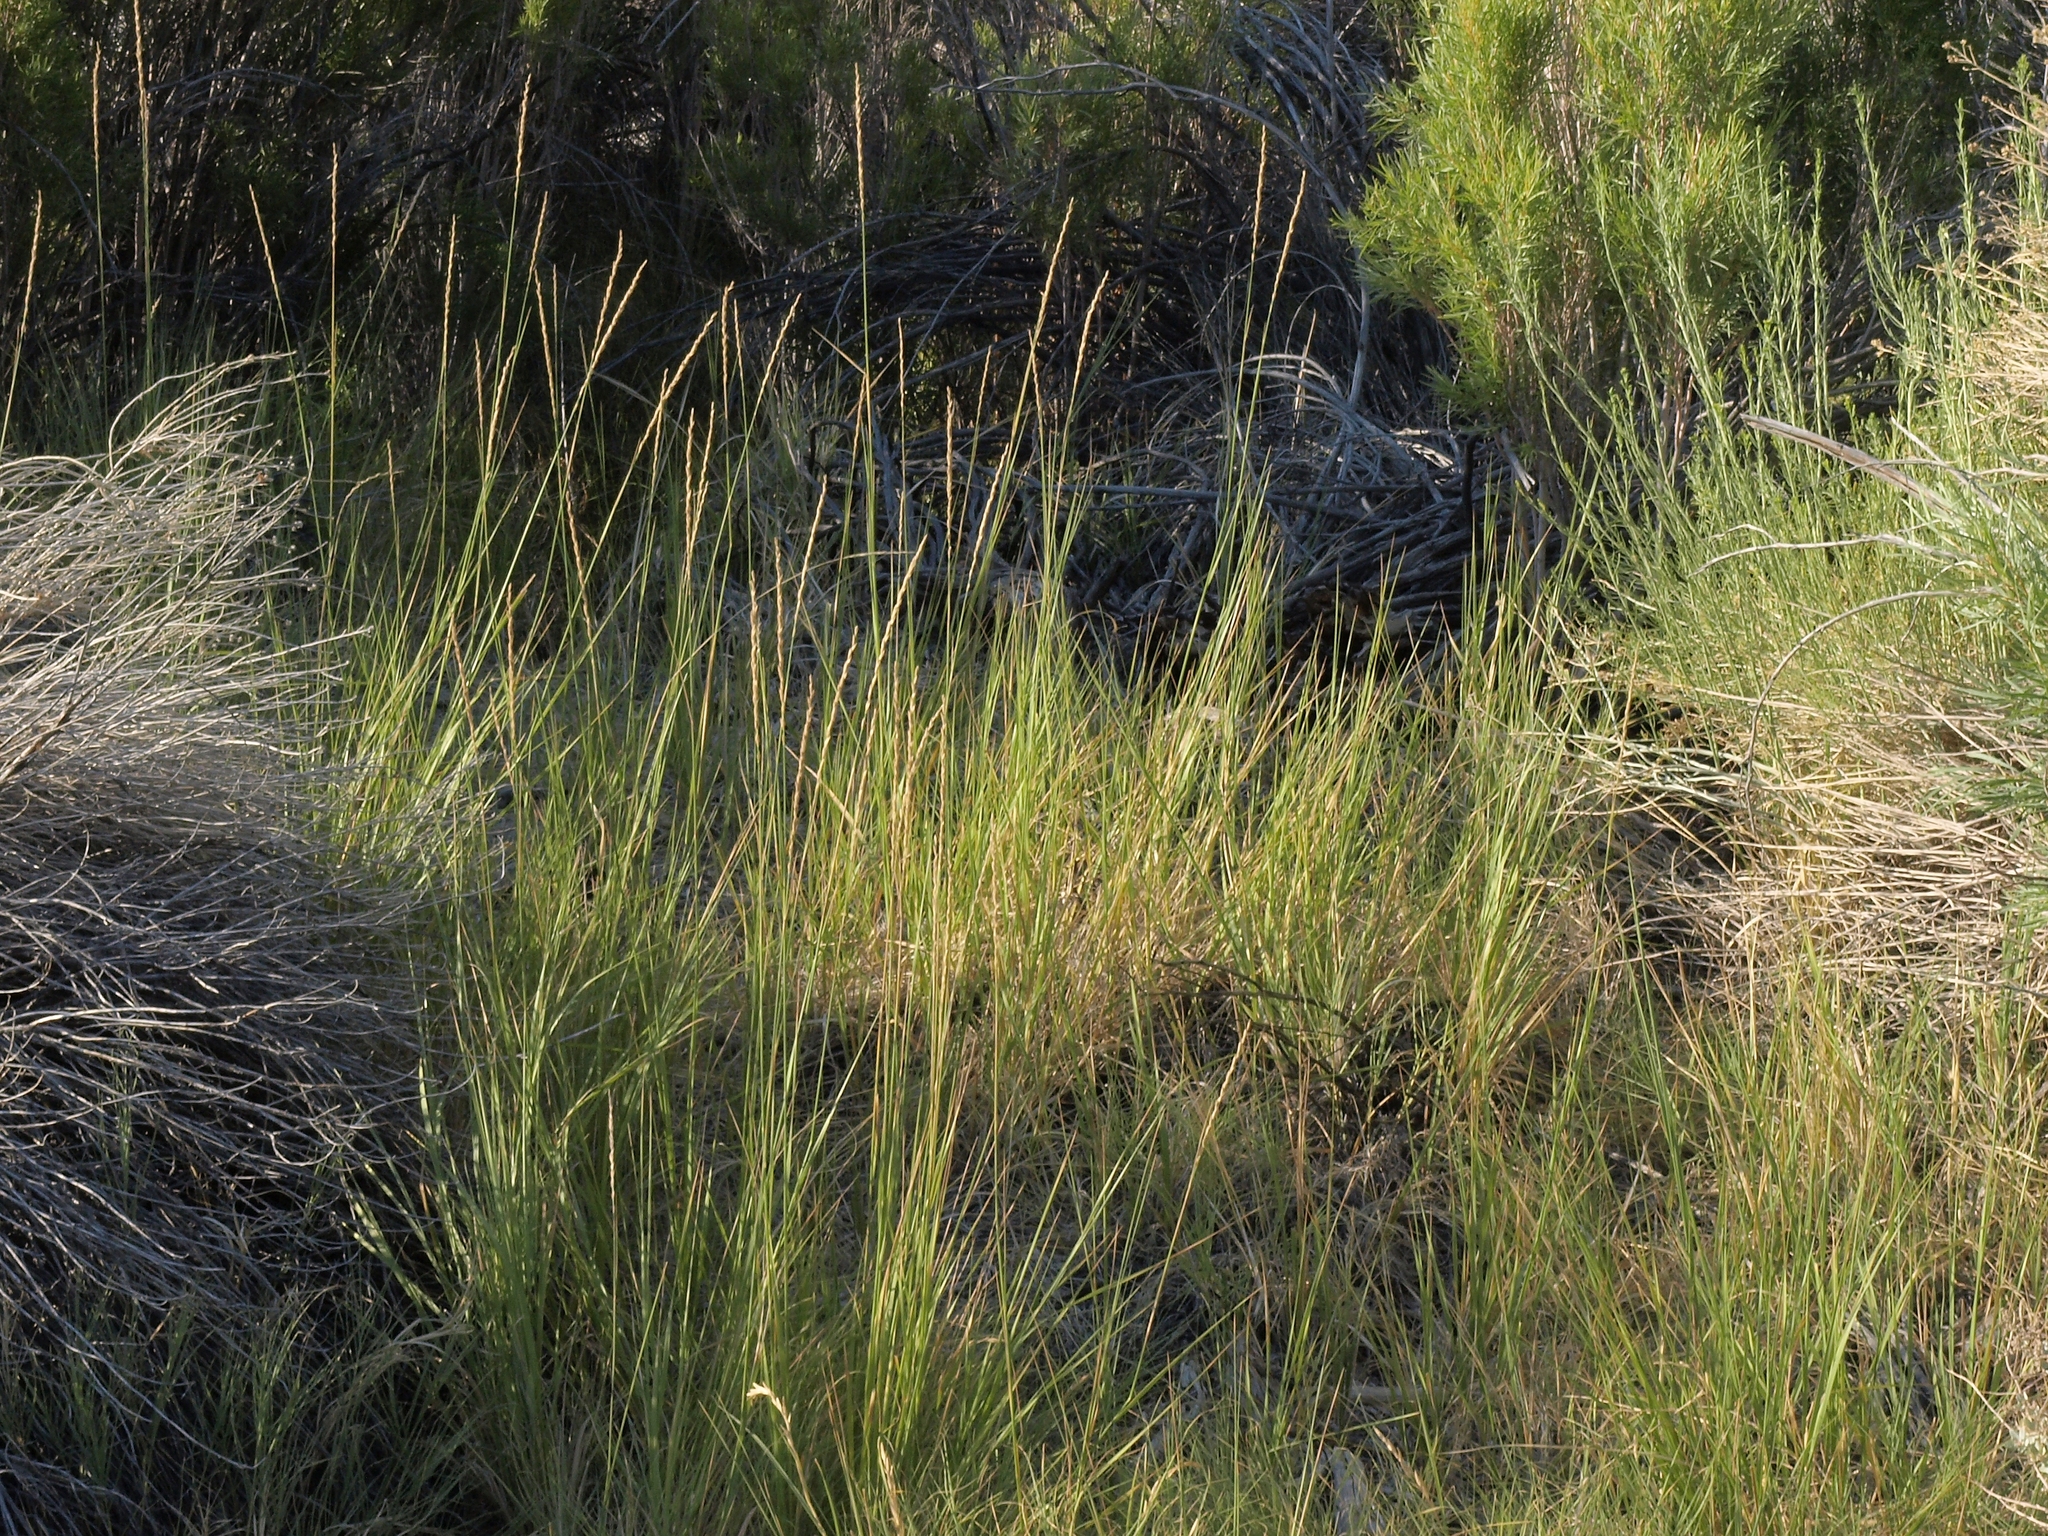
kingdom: Plantae
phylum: Tracheophyta
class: Liliopsida
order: Poales
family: Poaceae
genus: Leymus
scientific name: Leymus triticoides
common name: Beardless wild rye
